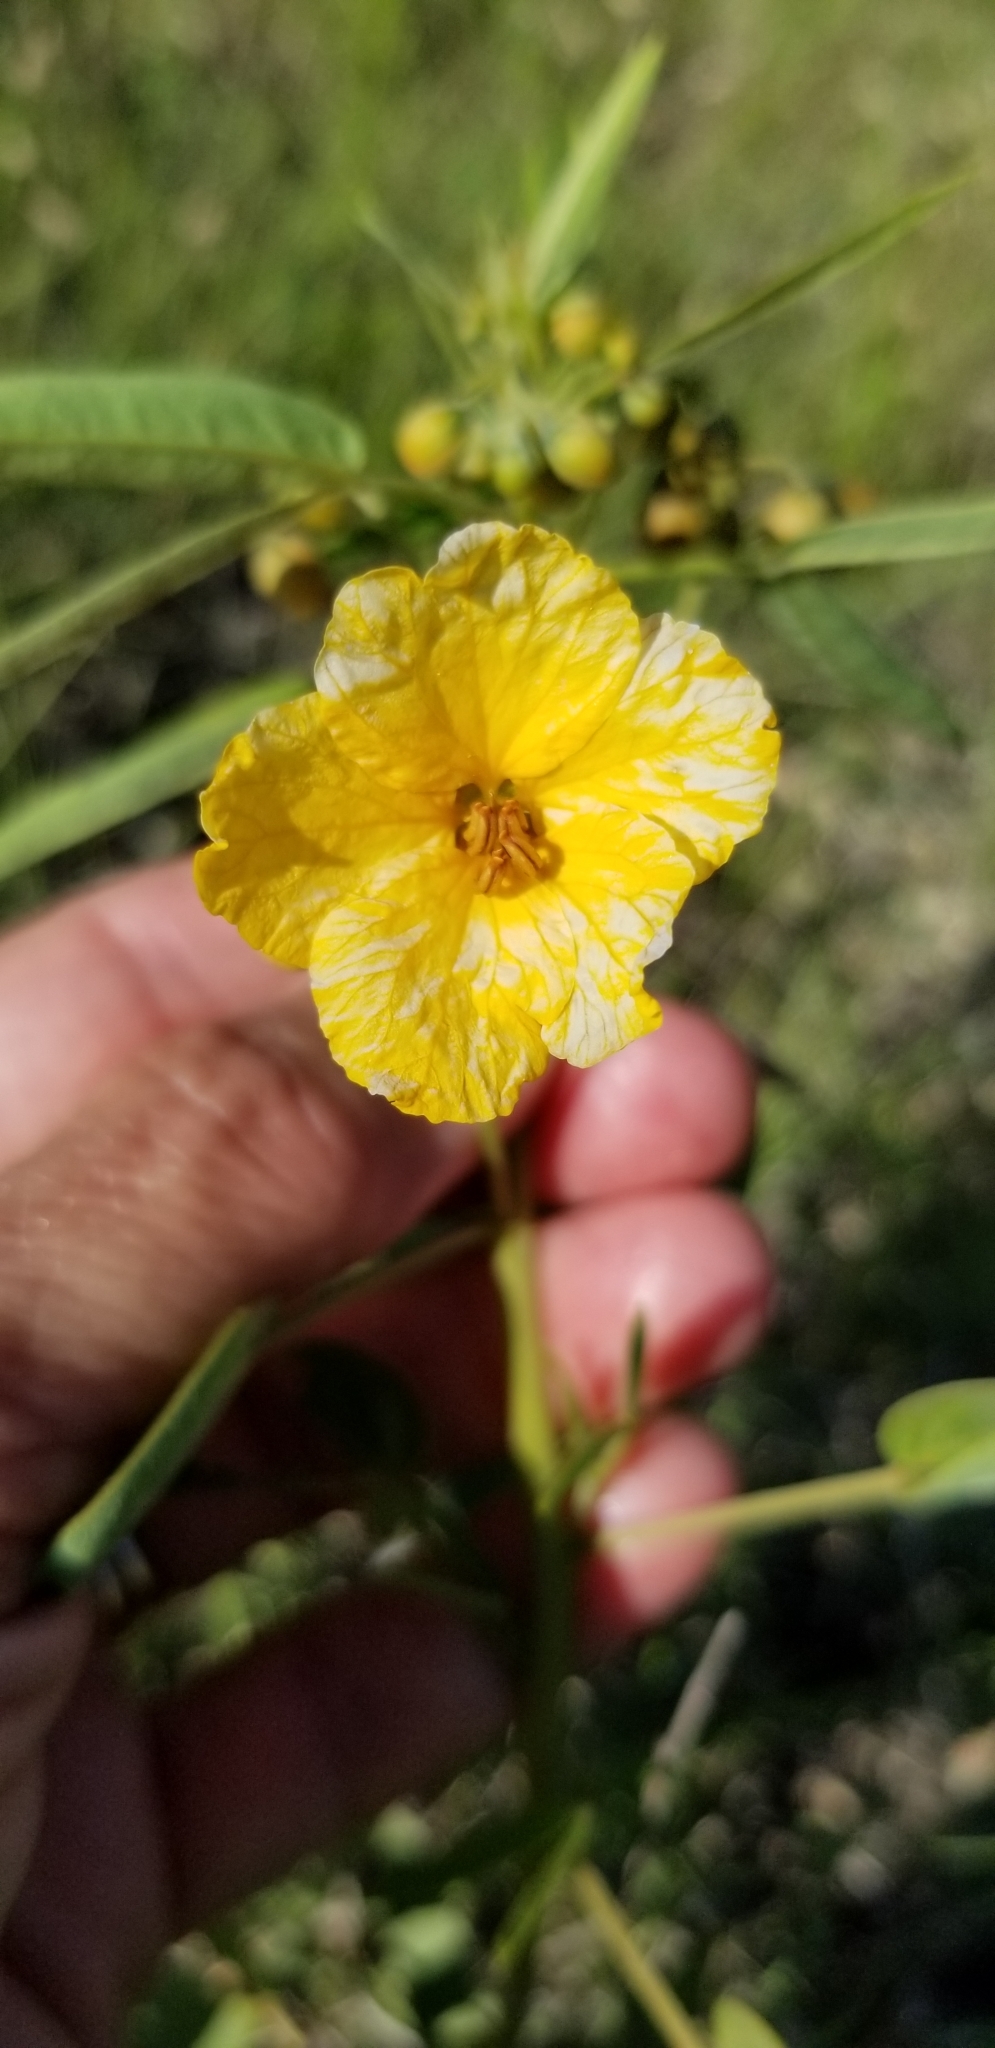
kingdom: Plantae
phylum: Tracheophyta
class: Magnoliopsida
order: Fabales
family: Fabaceae
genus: Senna
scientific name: Senna roemeriana
